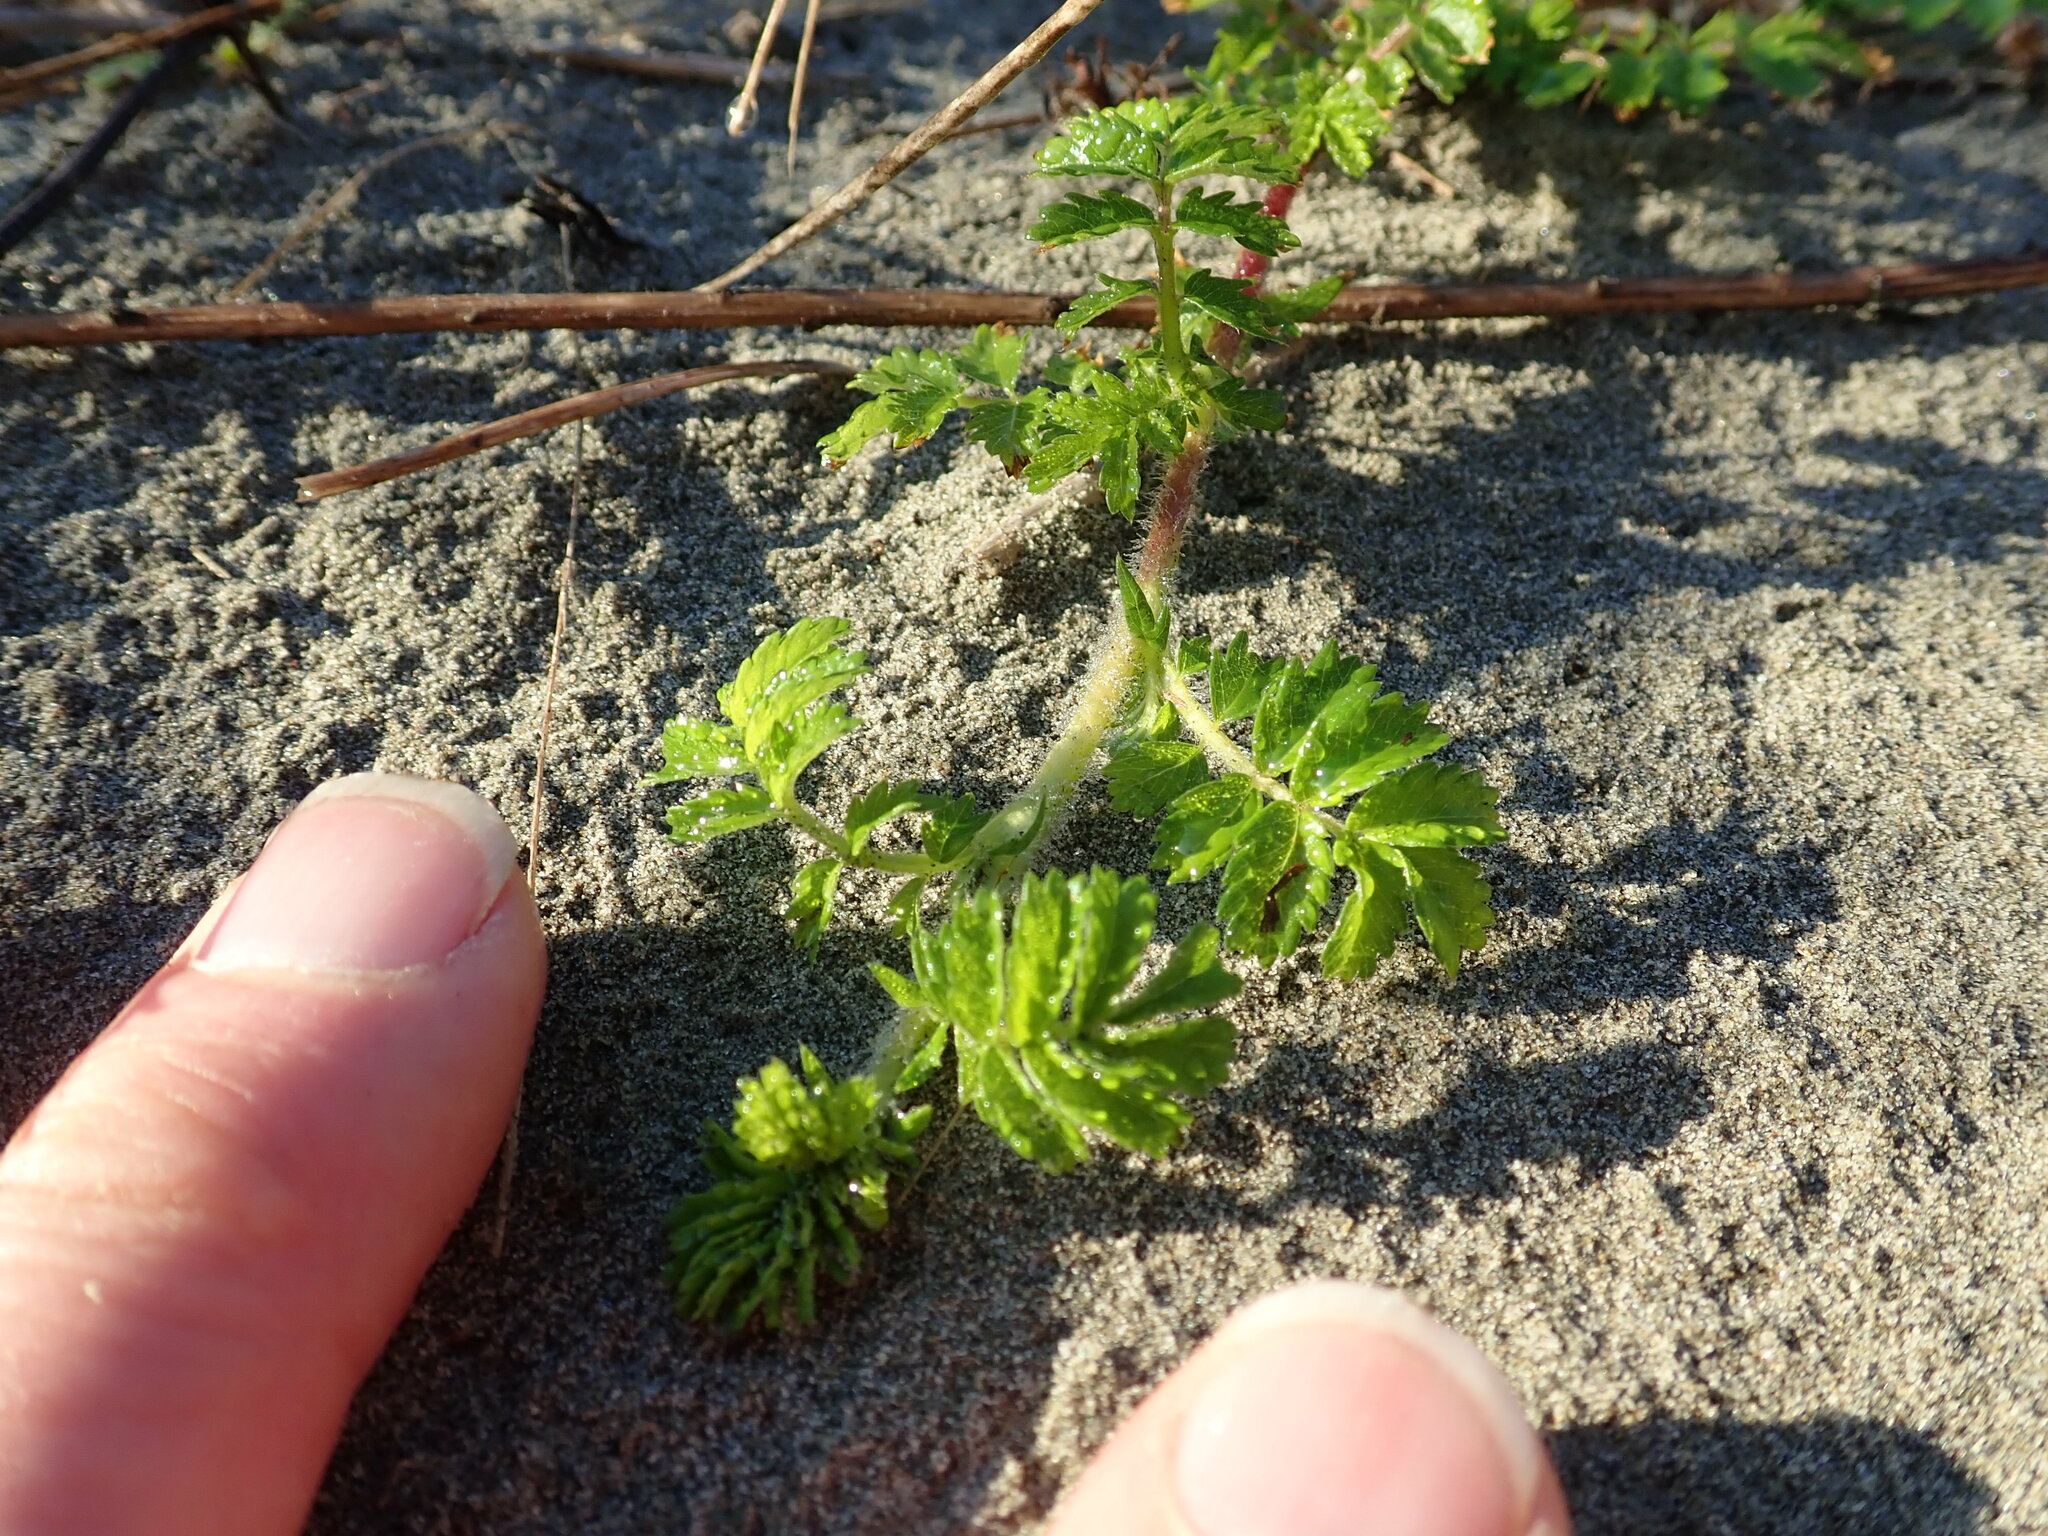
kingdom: Plantae
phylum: Tracheophyta
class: Magnoliopsida
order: Rosales
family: Rosaceae
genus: Acaena
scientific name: Acaena novae-zelandiae
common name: Pirri-pirri-bur
